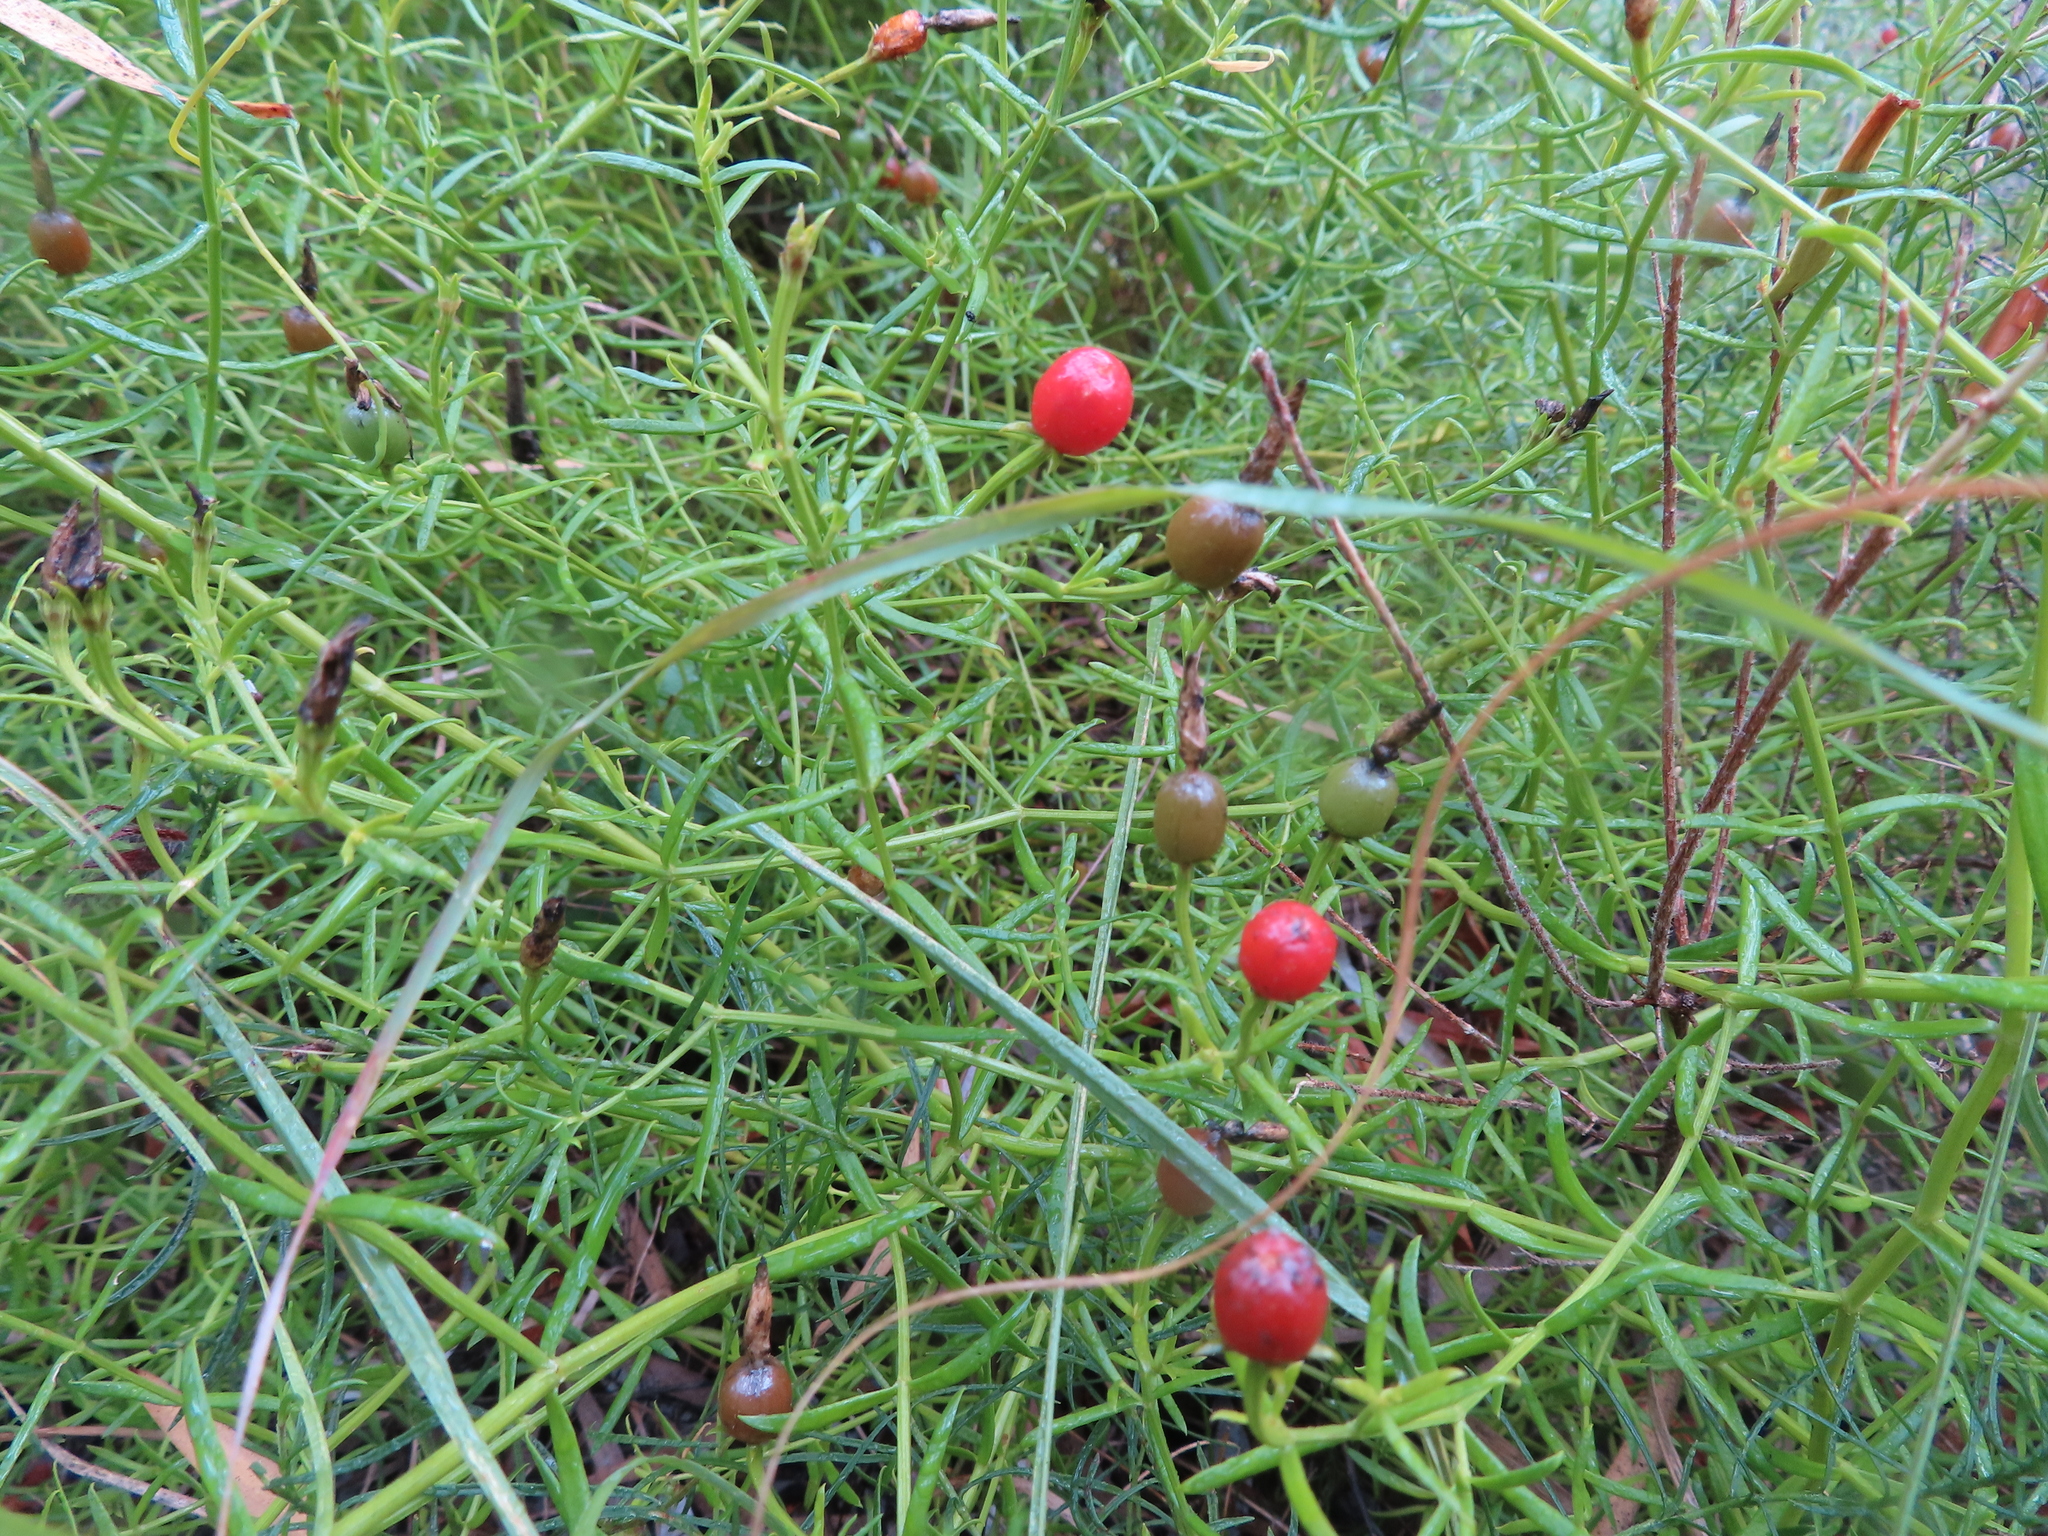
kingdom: Plantae
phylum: Tracheophyta
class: Magnoliopsida
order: Gentianales
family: Gentianaceae
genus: Chironia
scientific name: Chironia baccifera
